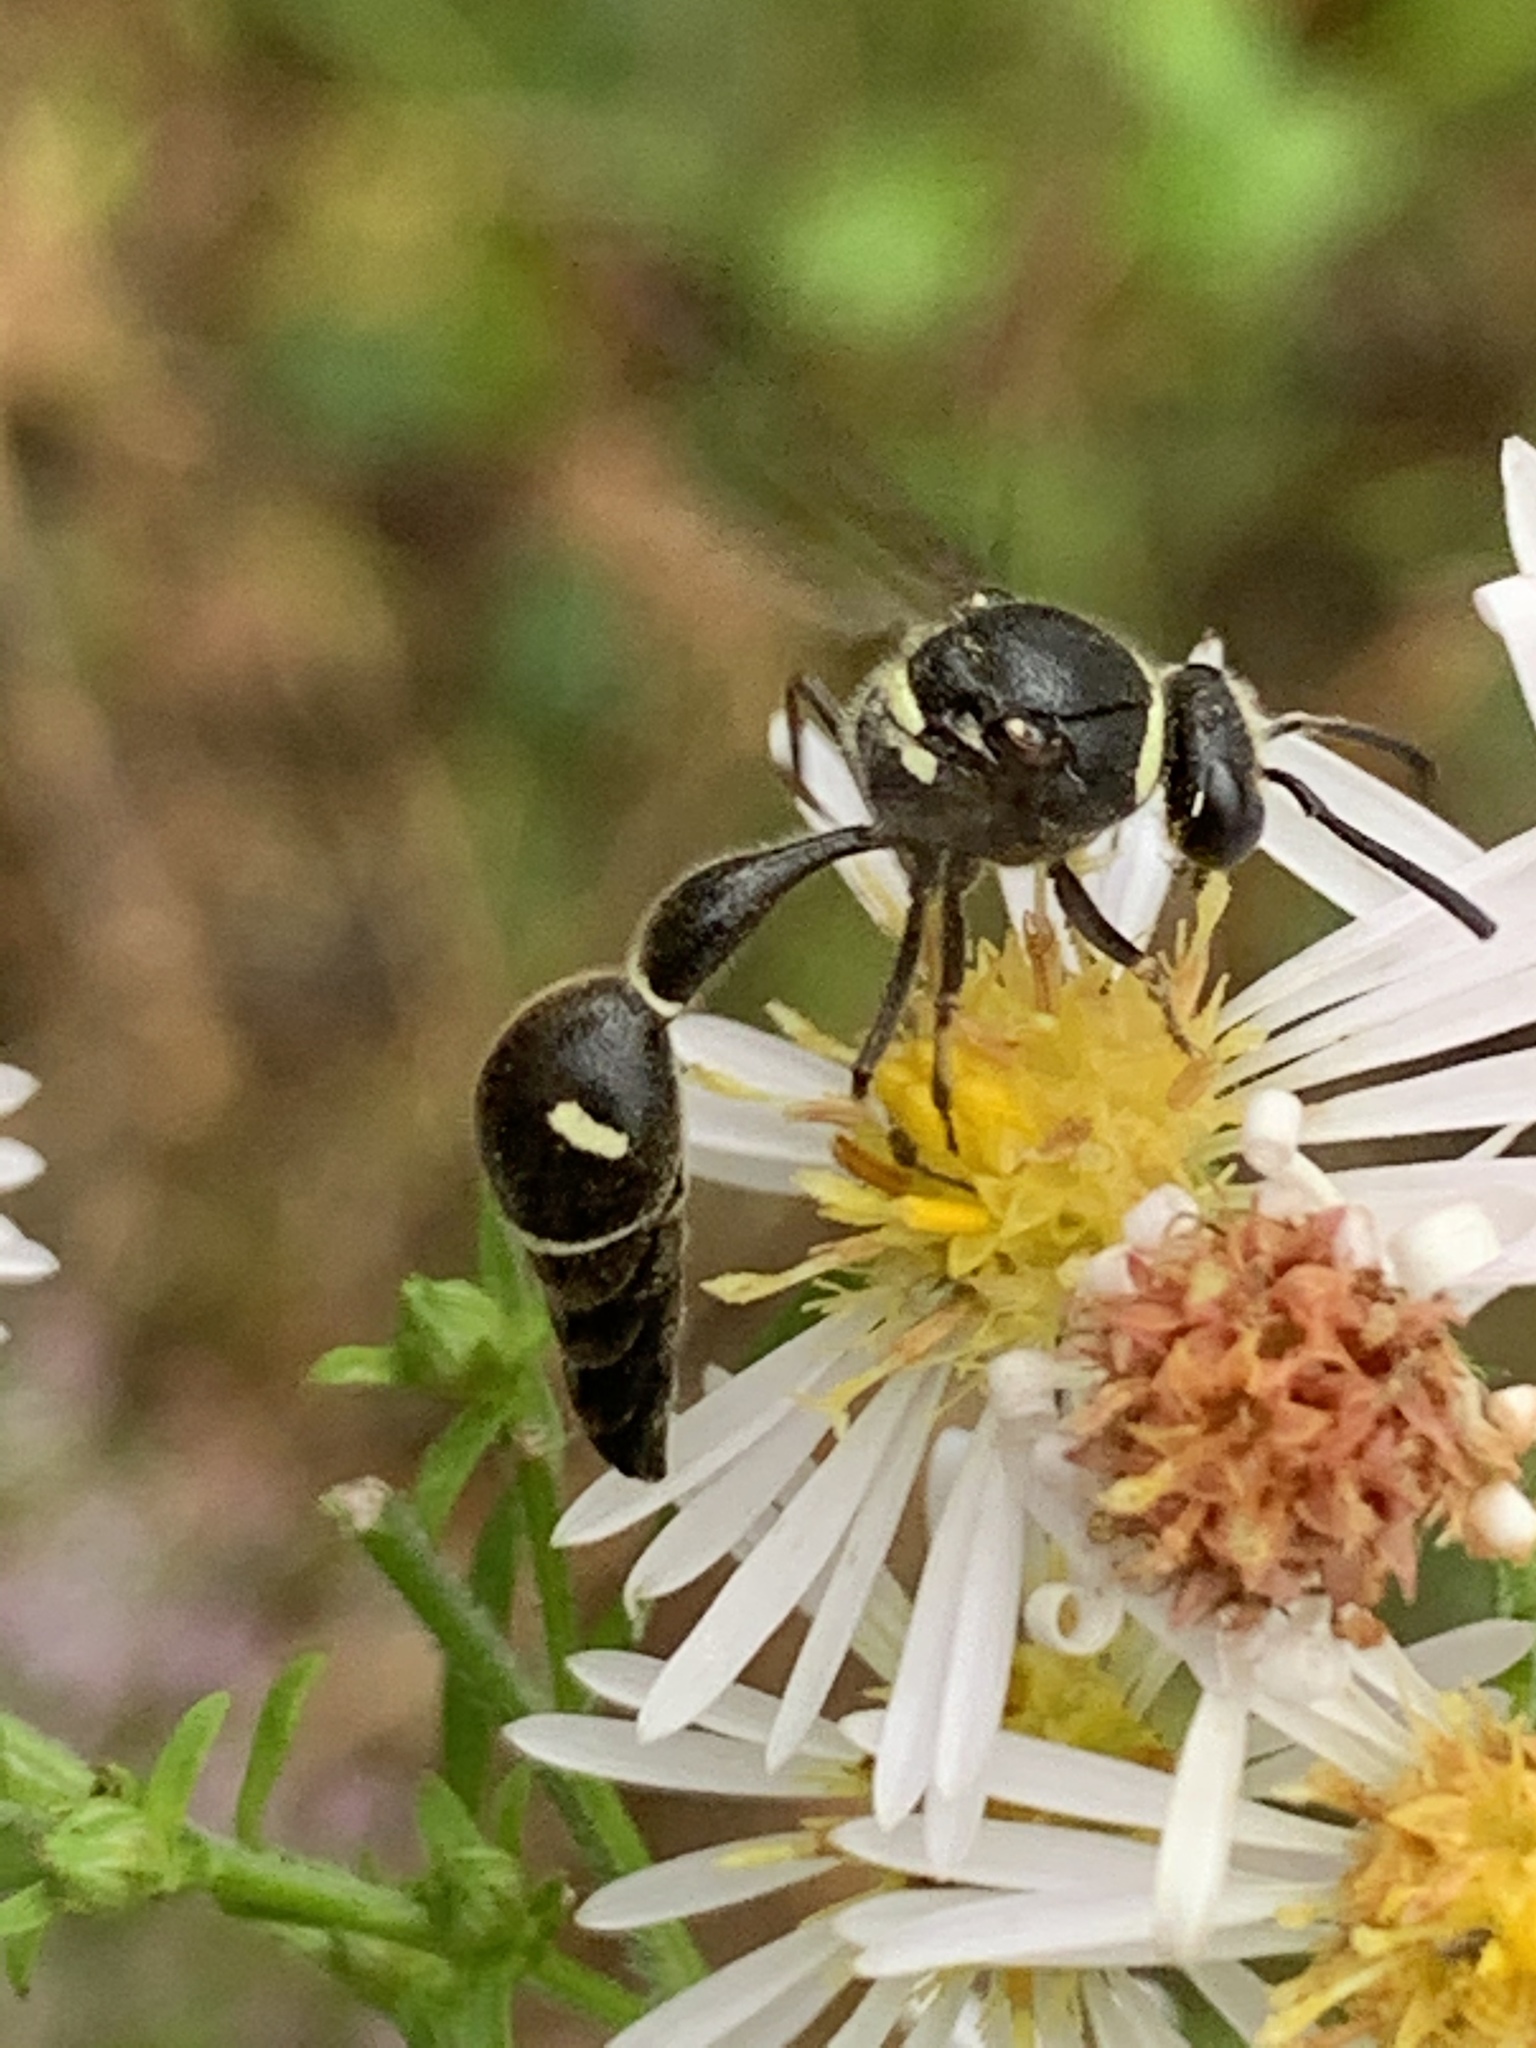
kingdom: Animalia
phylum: Arthropoda
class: Insecta
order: Hymenoptera
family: Vespidae
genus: Eumenes
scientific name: Eumenes fraternus
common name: Fraternal potter wasp
